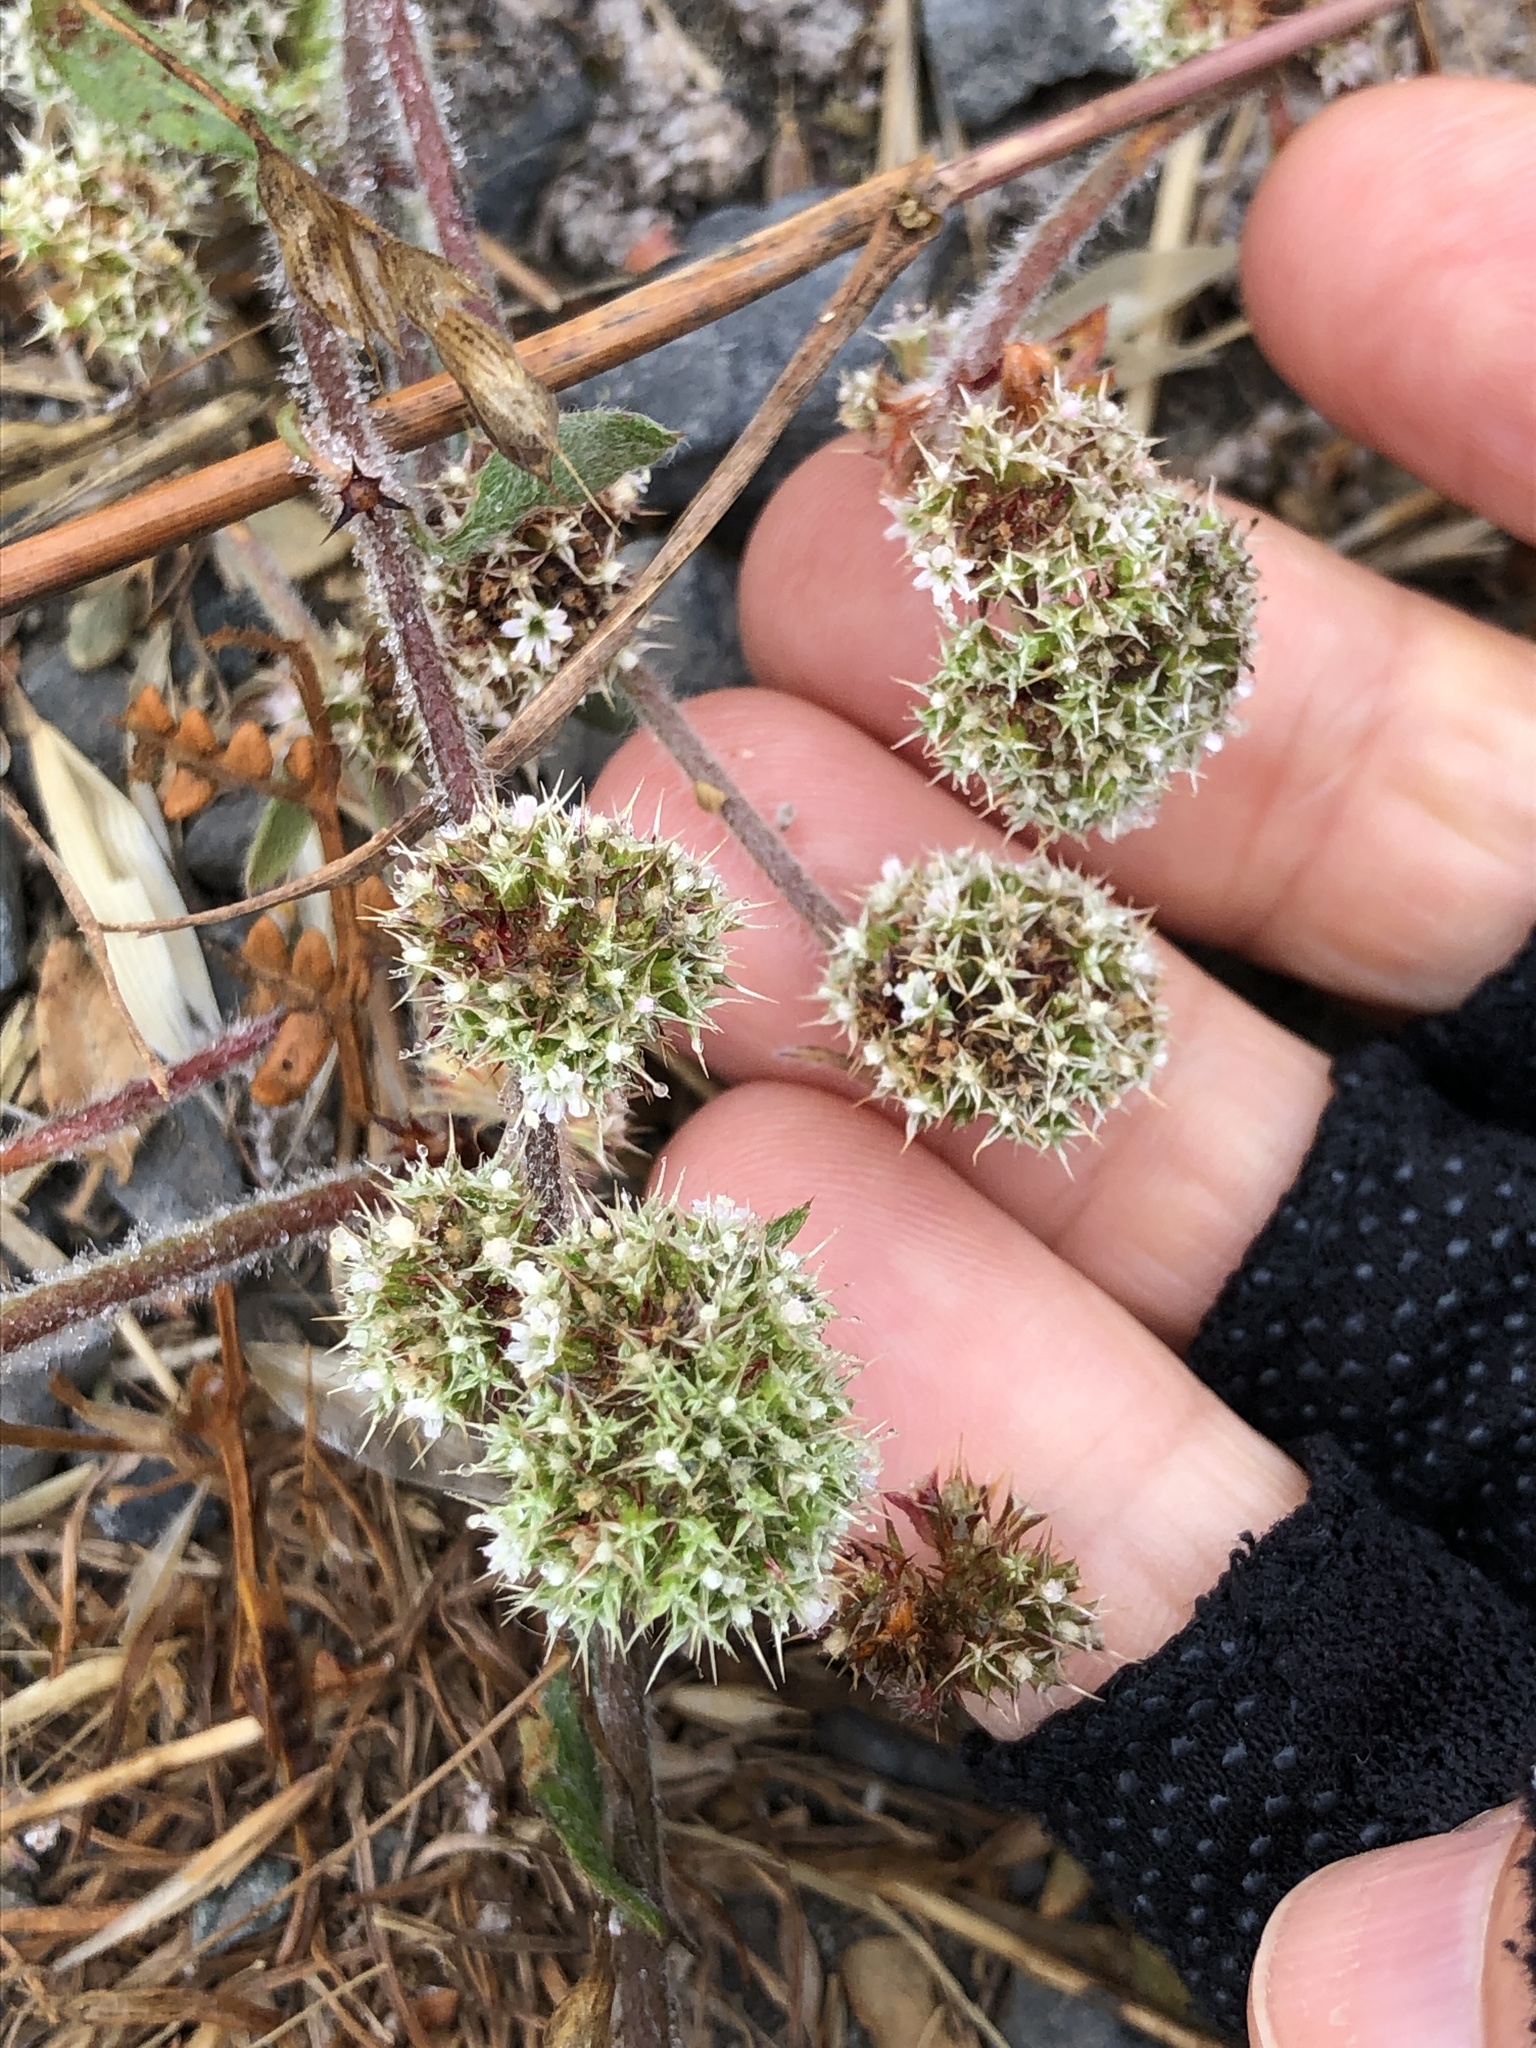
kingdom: Plantae
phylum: Tracheophyta
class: Magnoliopsida
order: Caryophyllales
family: Polygonaceae
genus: Chorizanthe
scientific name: Chorizanthe cuspidata
